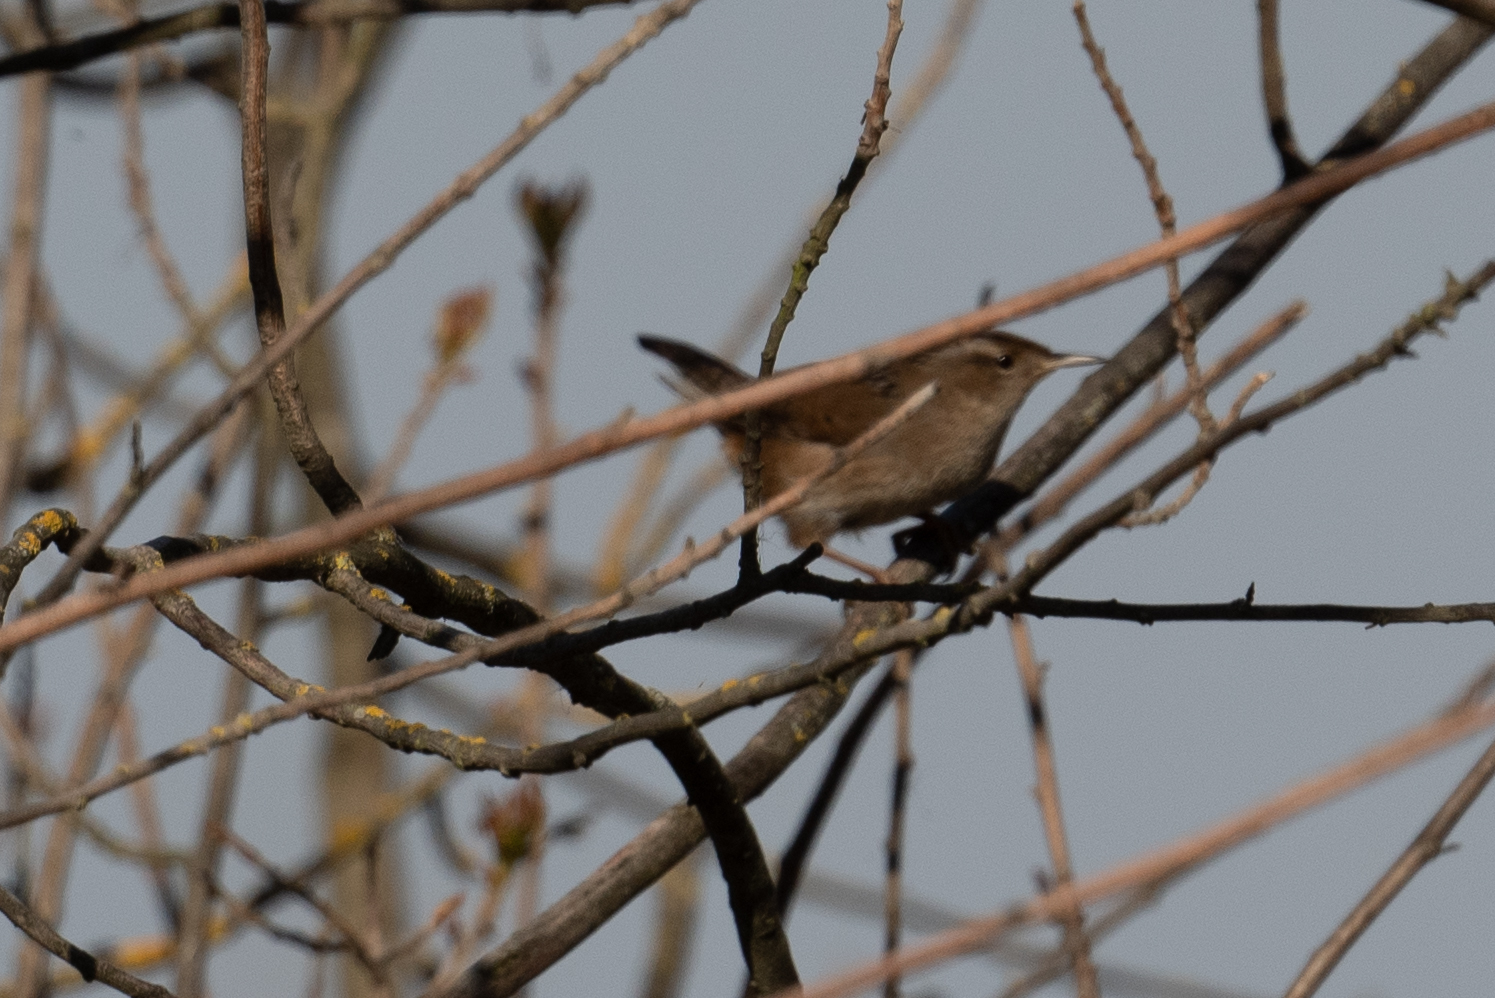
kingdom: Animalia
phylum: Chordata
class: Aves
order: Passeriformes
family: Troglodytidae
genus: Cistothorus
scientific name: Cistothorus palustris
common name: Marsh wren
